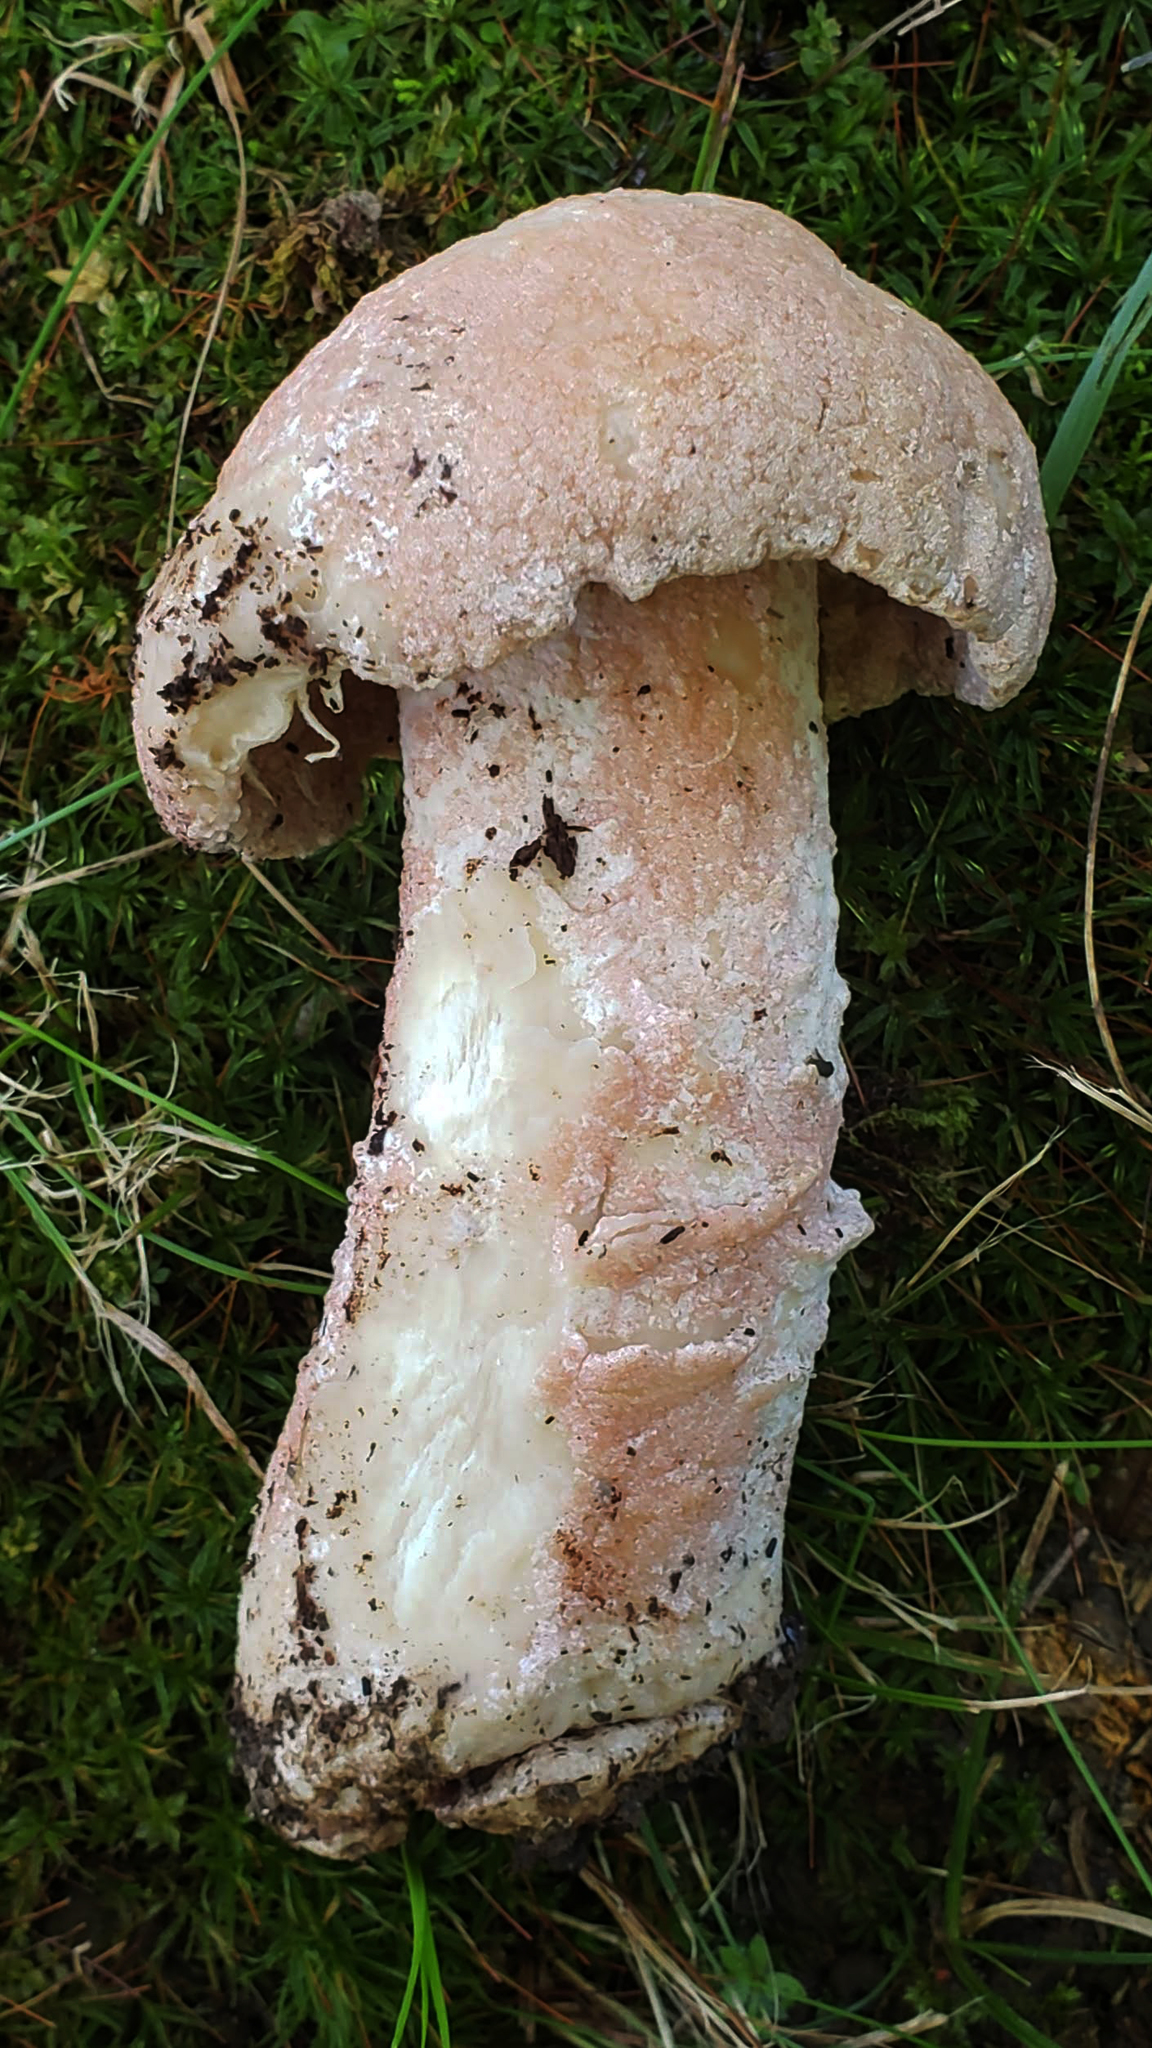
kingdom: Fungi
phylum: Ascomycota
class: Sordariomycetes
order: Hypocreales
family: Hypocreaceae
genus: Mycogone
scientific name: Mycogone rosea
